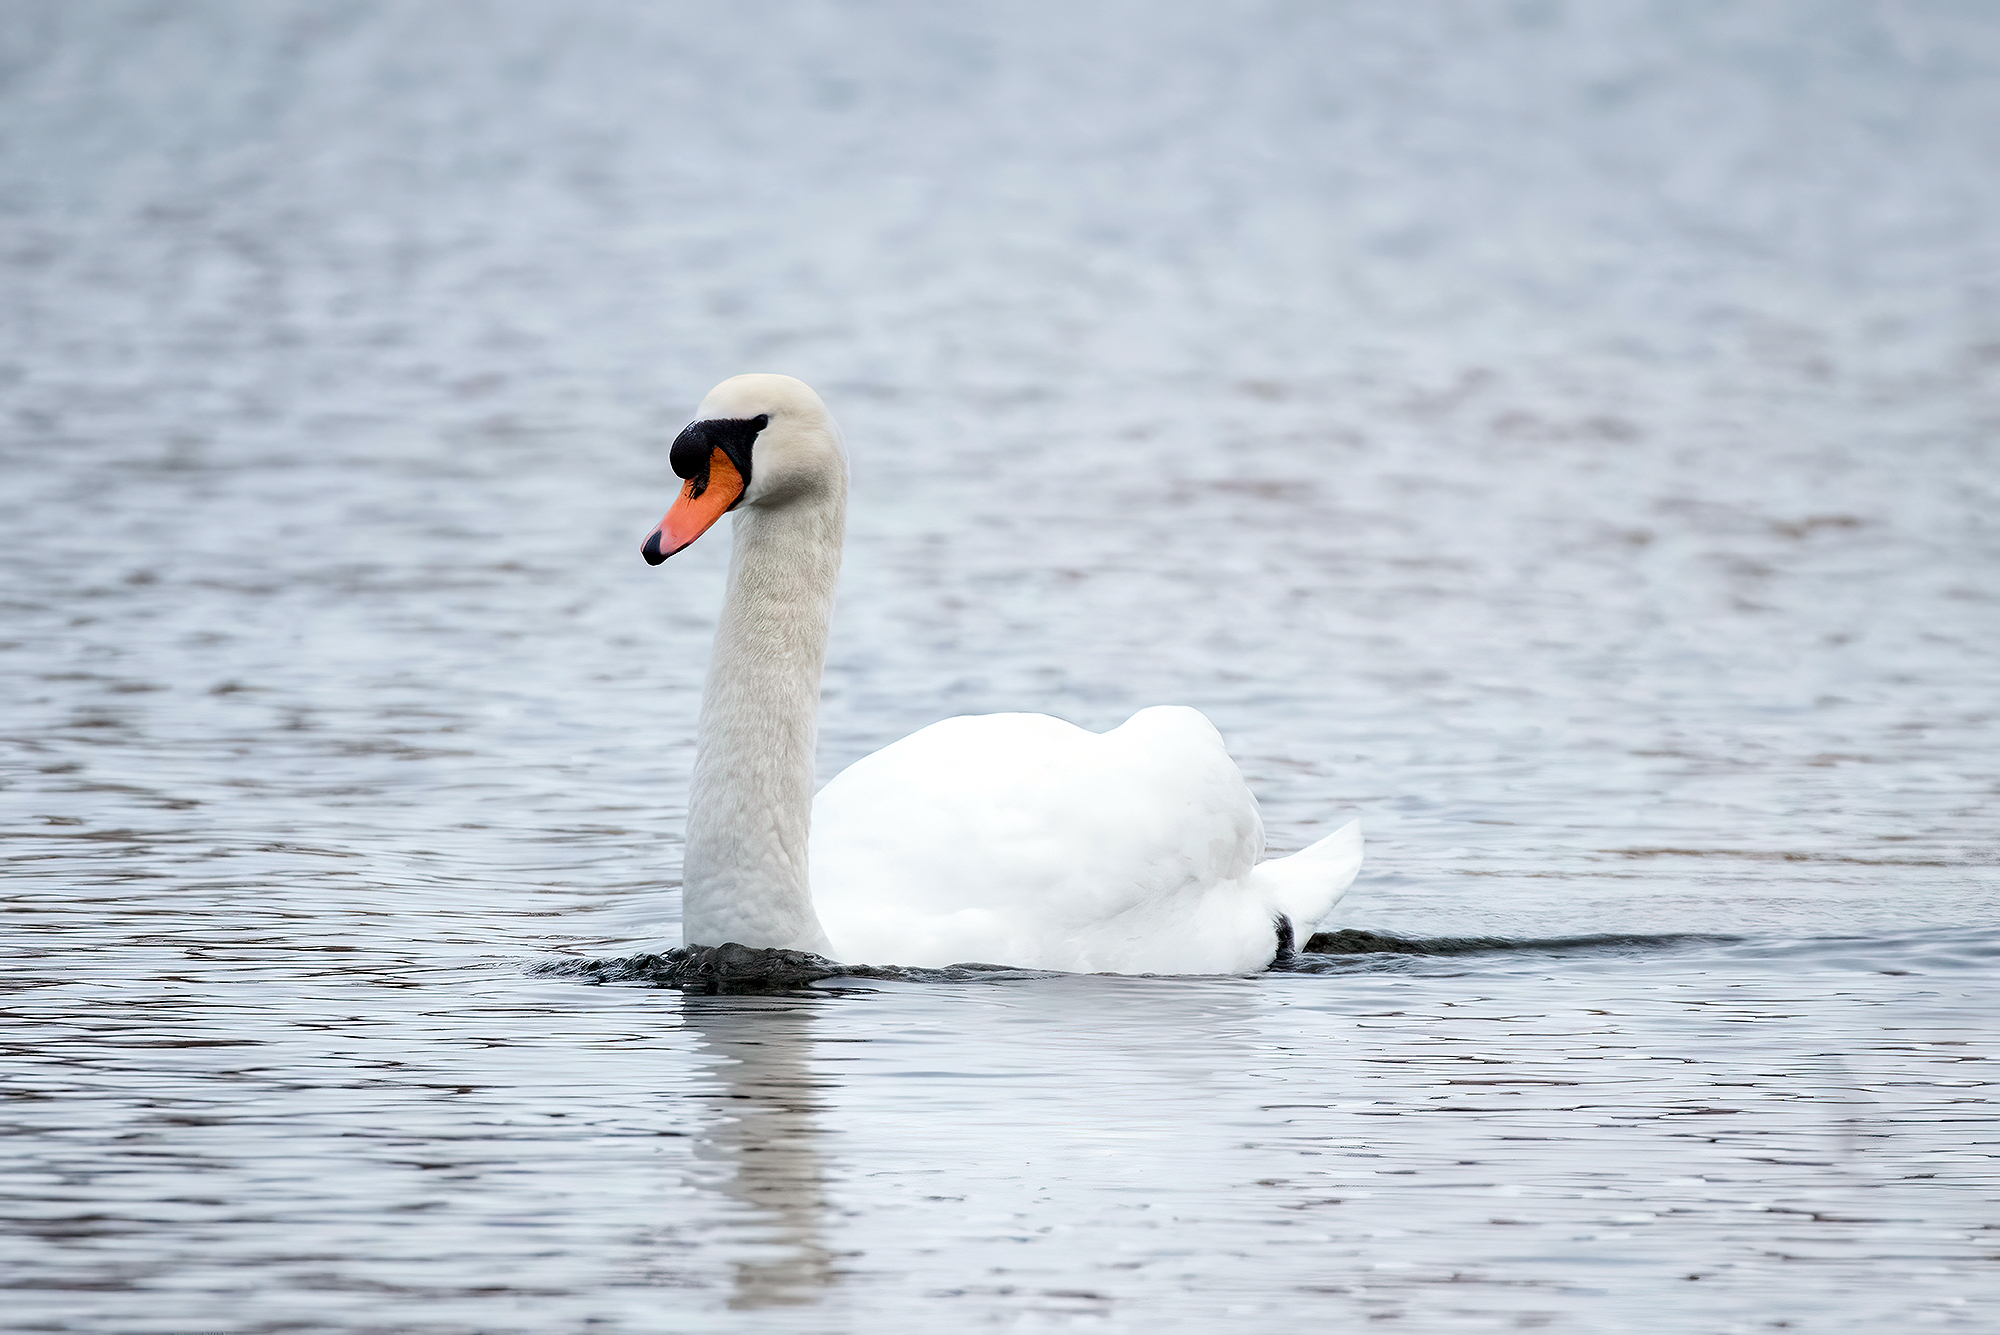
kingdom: Animalia
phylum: Chordata
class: Aves
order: Anseriformes
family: Anatidae
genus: Cygnus
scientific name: Cygnus olor
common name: Mute swan
